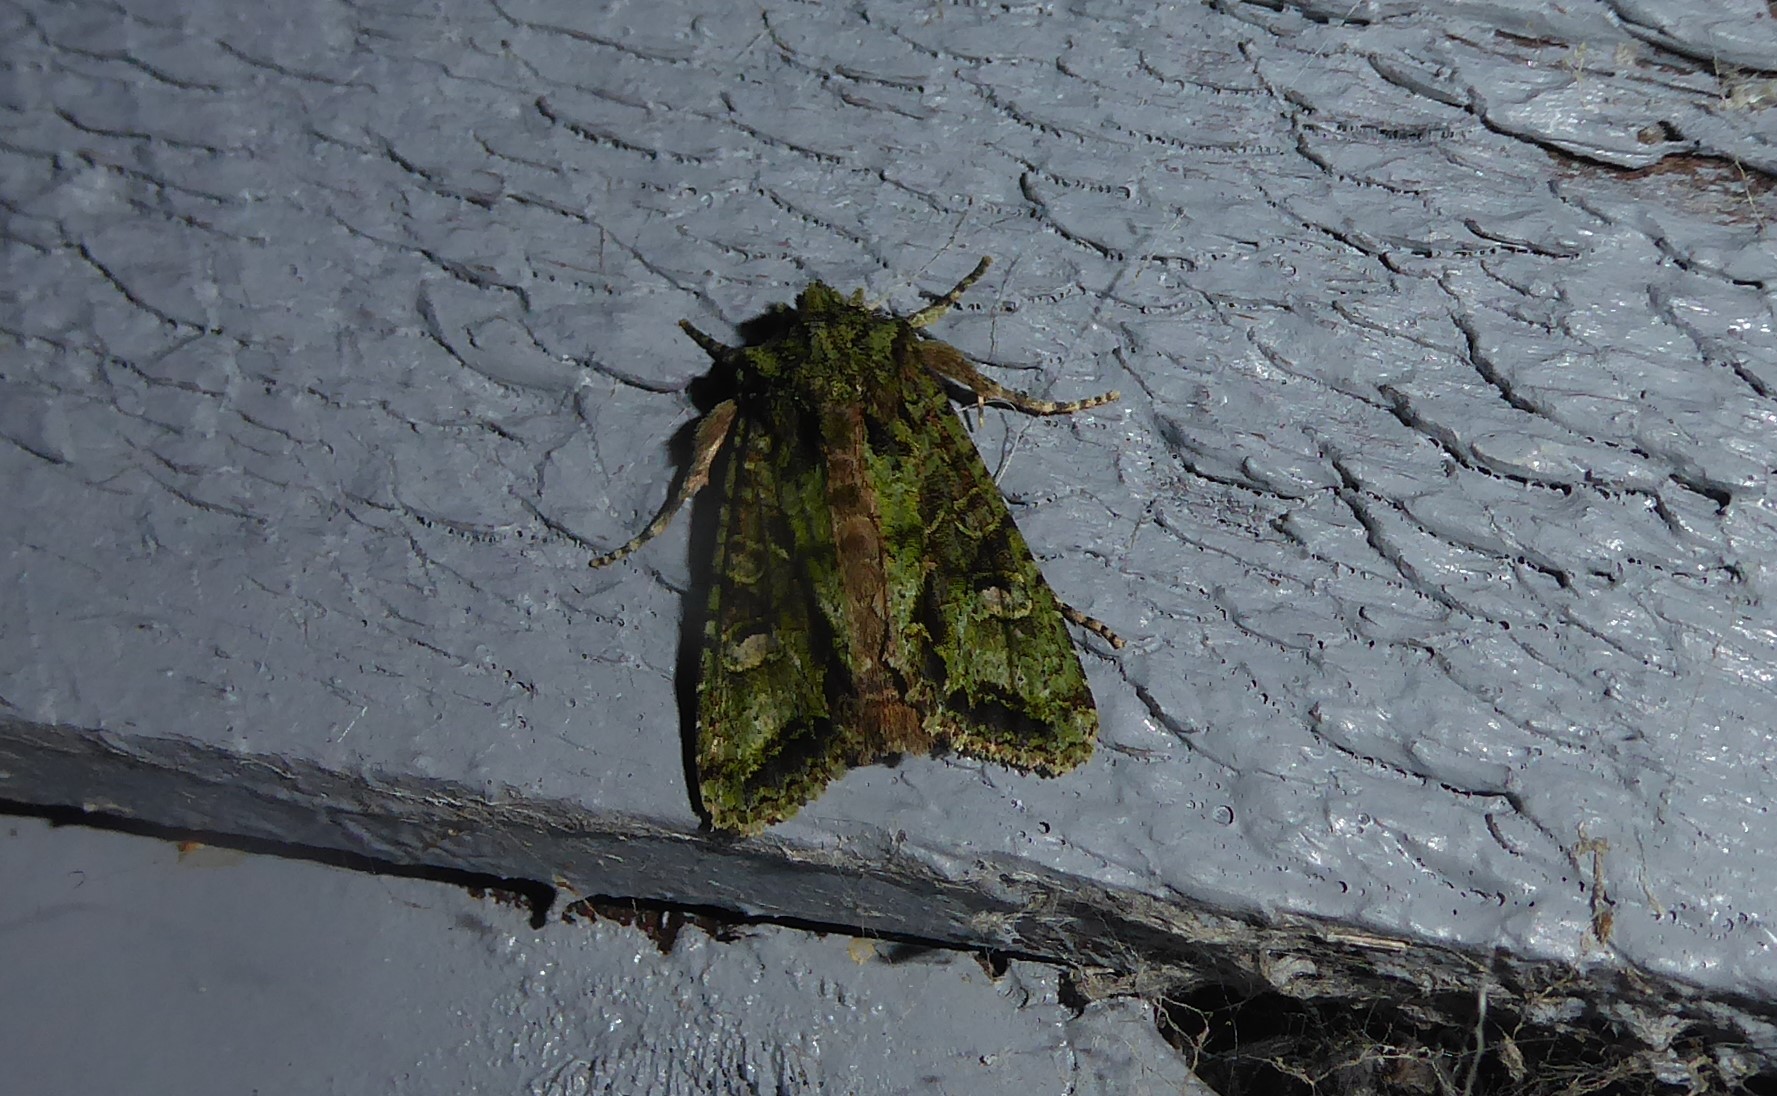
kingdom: Animalia
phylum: Arthropoda
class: Insecta
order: Lepidoptera
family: Noctuidae
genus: Ichneutica
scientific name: Ichneutica
